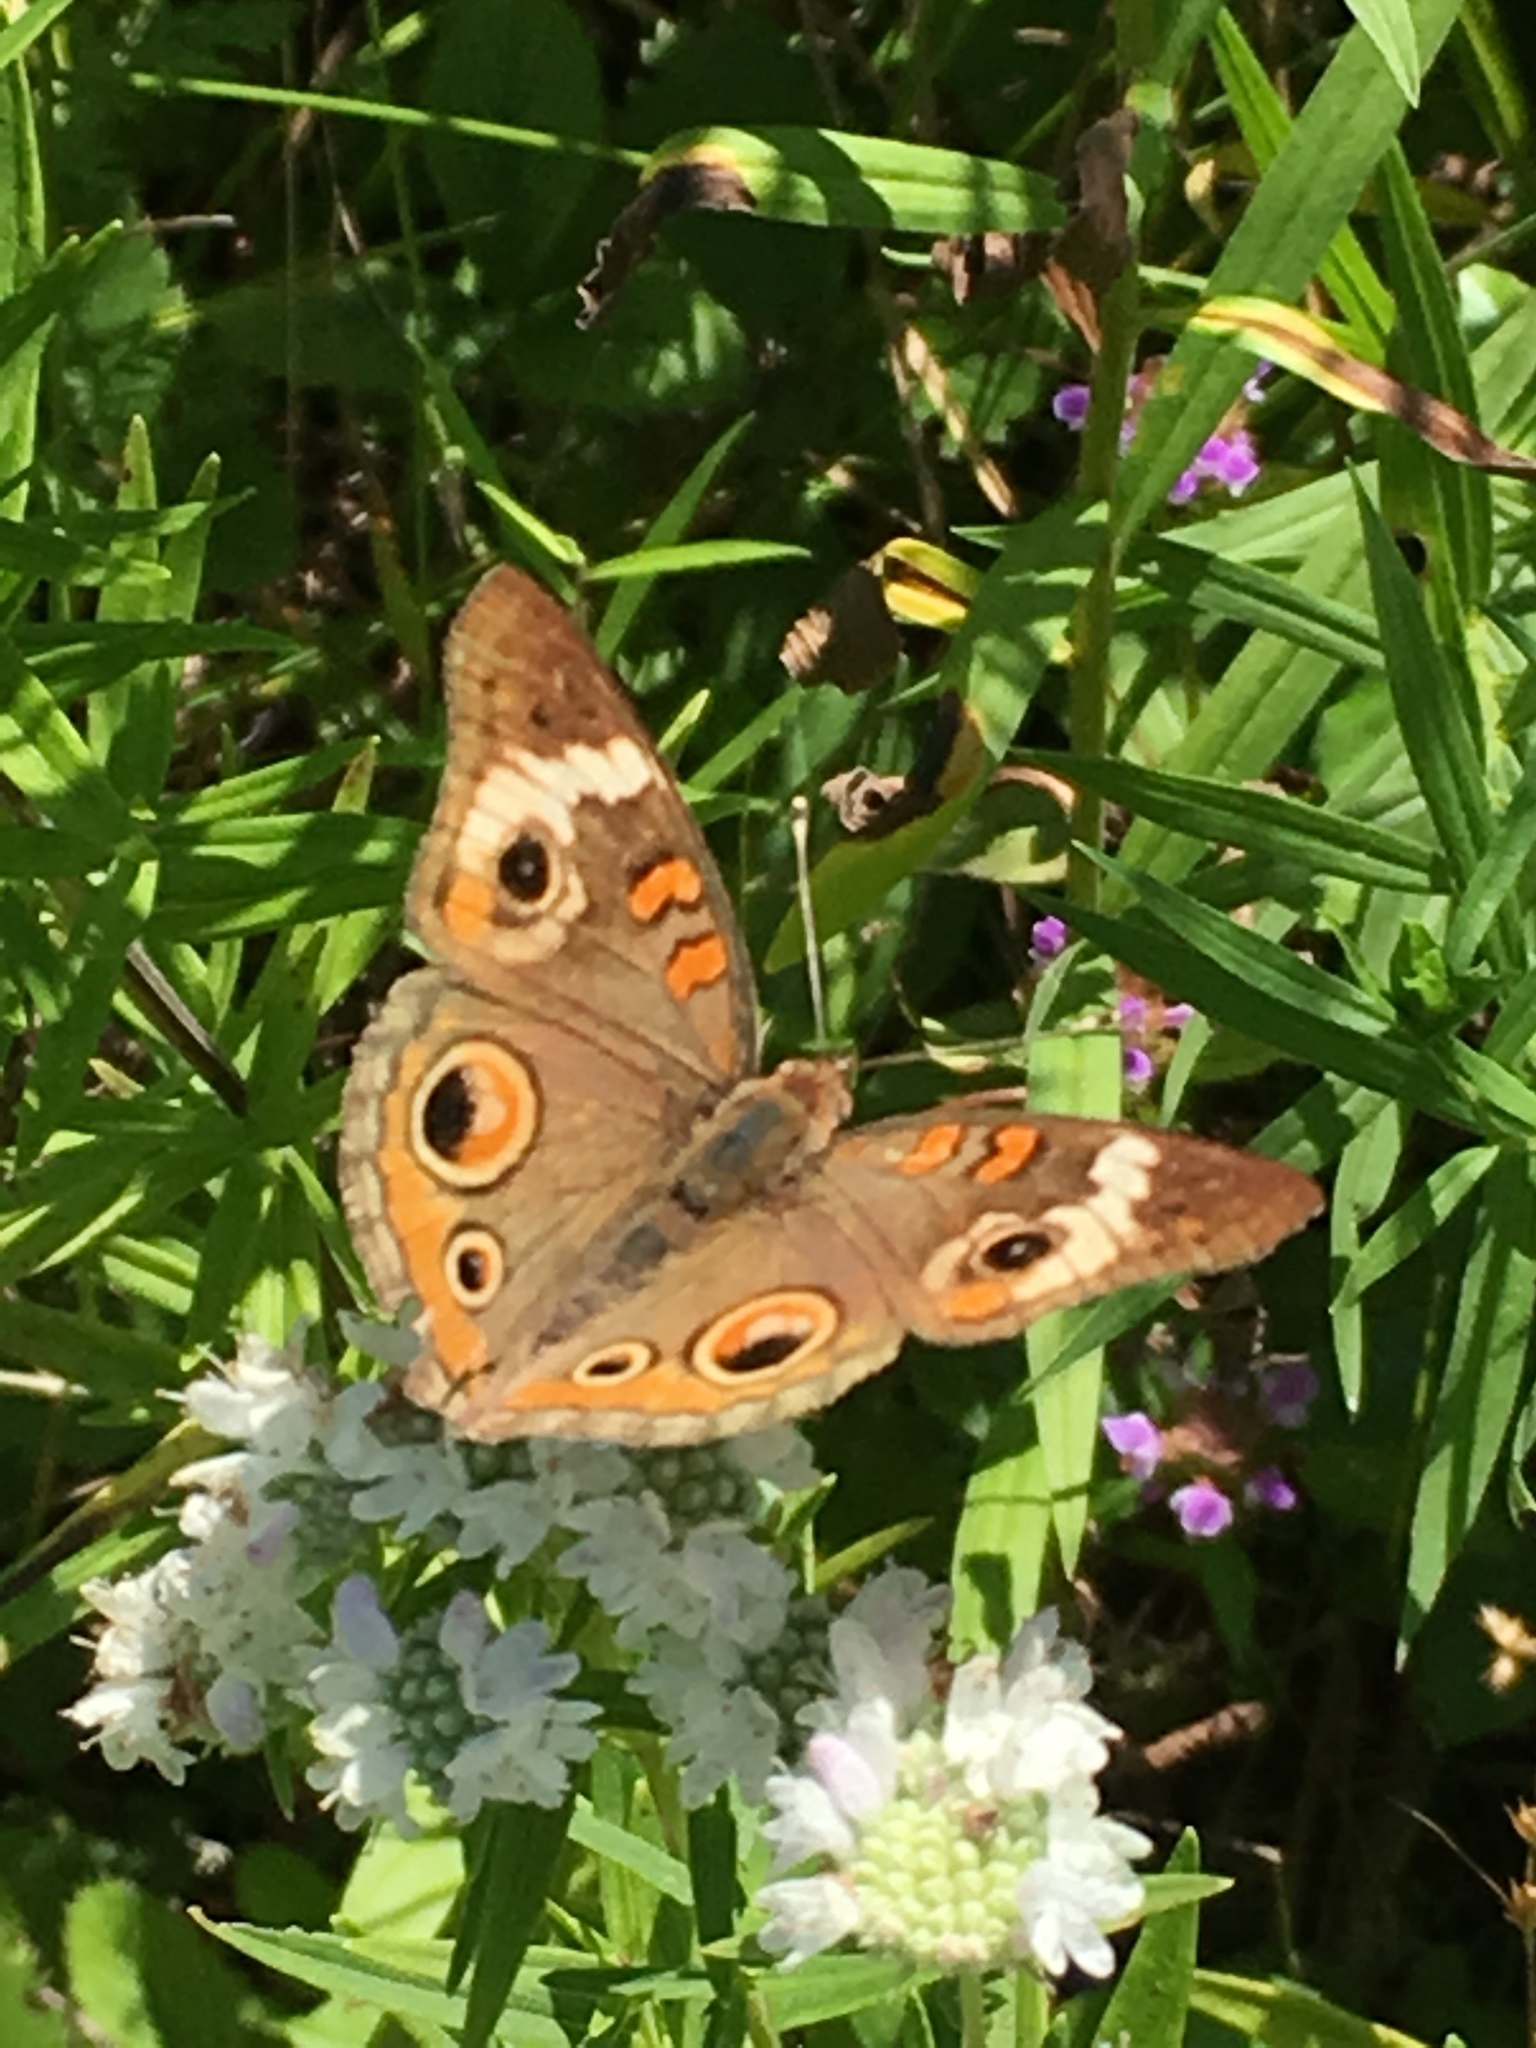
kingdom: Animalia
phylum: Arthropoda
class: Insecta
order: Lepidoptera
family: Nymphalidae
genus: Junonia
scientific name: Junonia coenia
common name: Common buckeye
